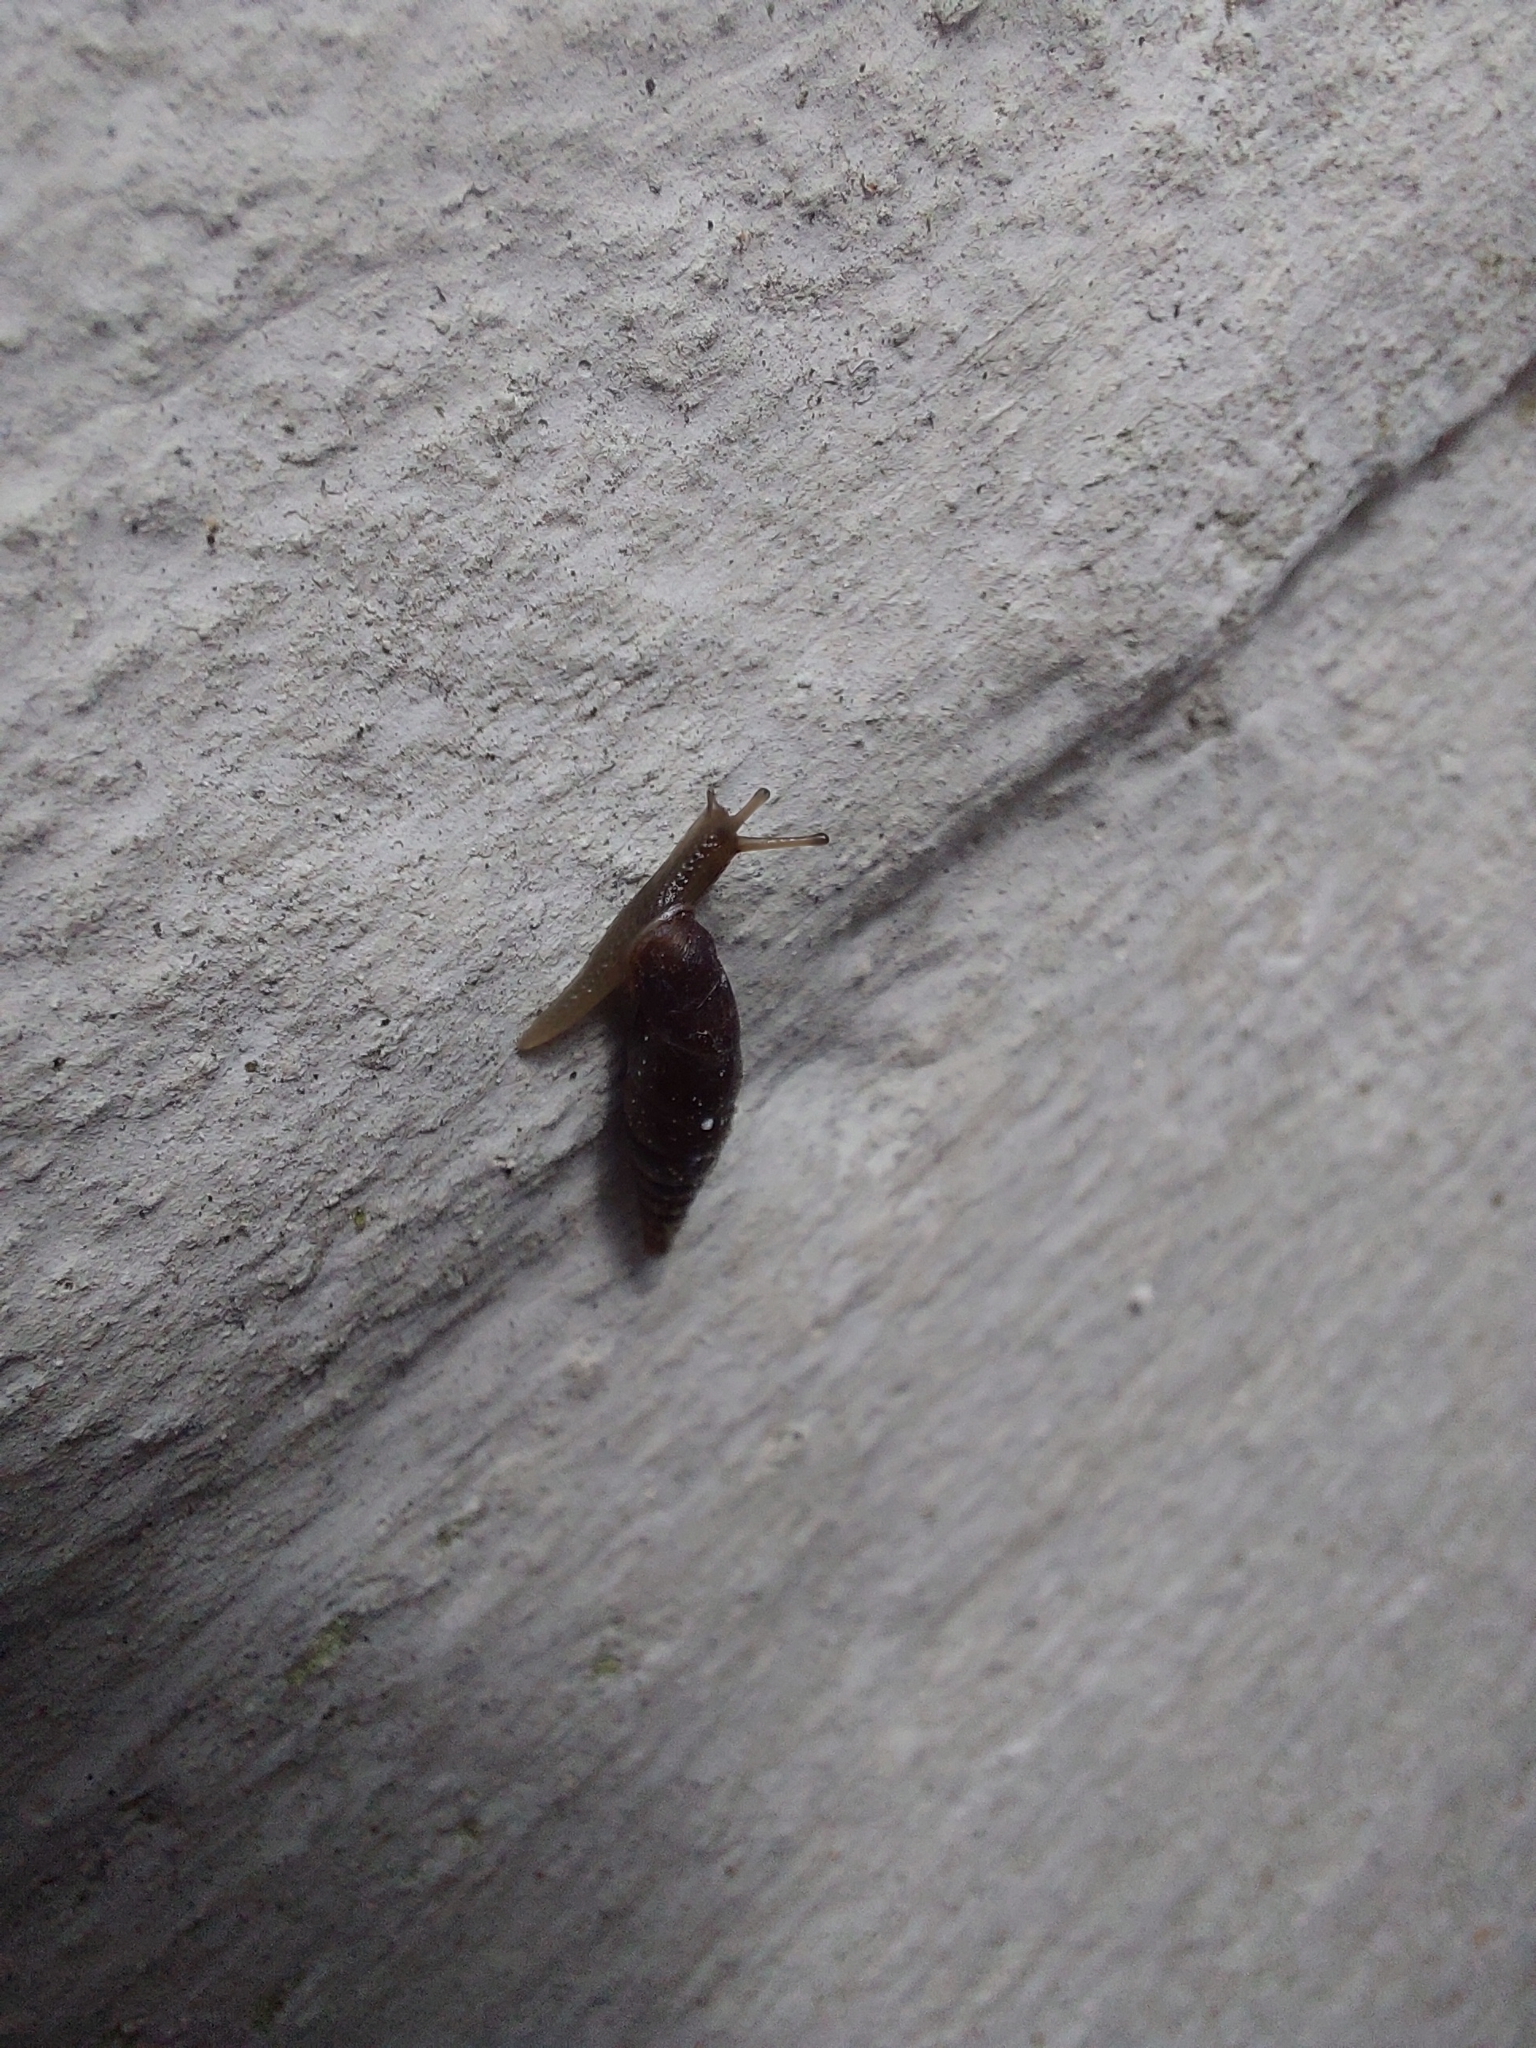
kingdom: Animalia
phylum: Mollusca
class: Gastropoda
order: Stylommatophora
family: Clausiliidae
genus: Cochlodina
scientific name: Cochlodina laminata
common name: Plaited door snail
